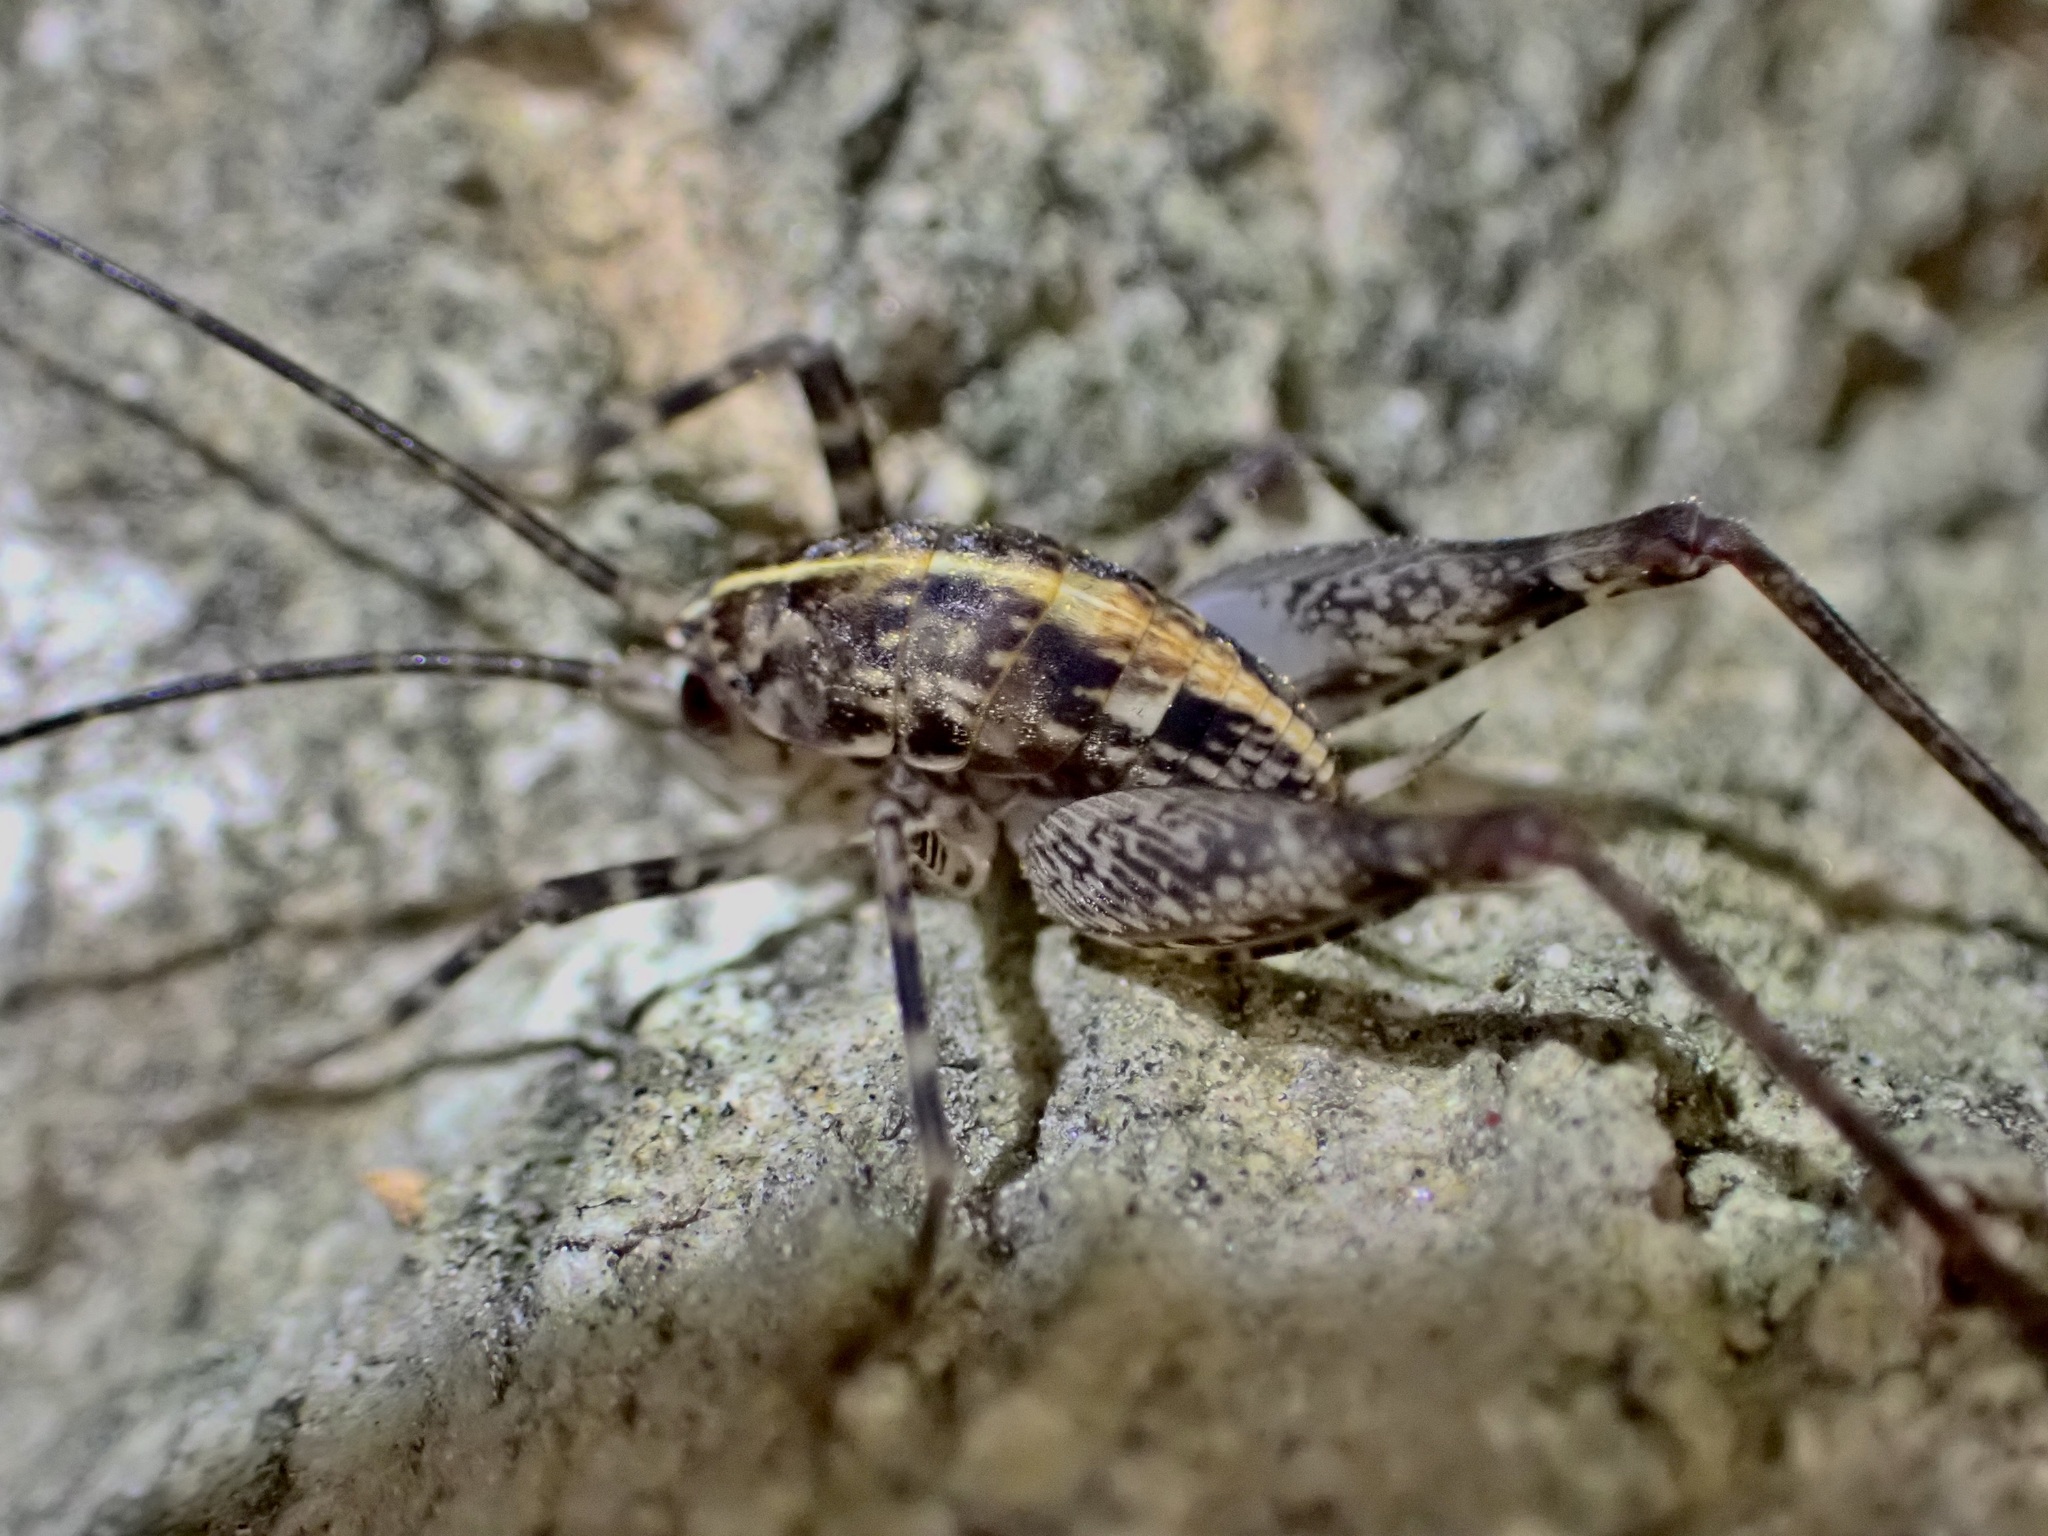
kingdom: Animalia
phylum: Arthropoda
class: Insecta
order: Orthoptera
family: Rhaphidophoridae
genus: Pleioplectron
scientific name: Pleioplectron simplex
